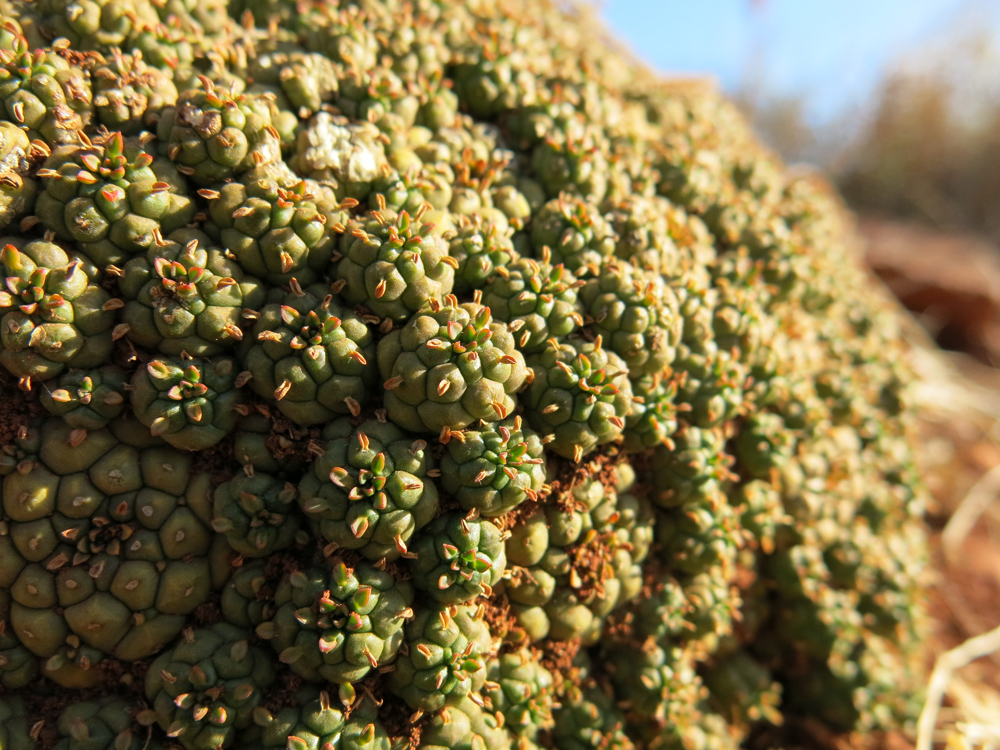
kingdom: Plantae
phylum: Tracheophyta
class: Magnoliopsida
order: Malpighiales
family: Euphorbiaceae
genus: Euphorbia
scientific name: Euphorbia clavarioides
